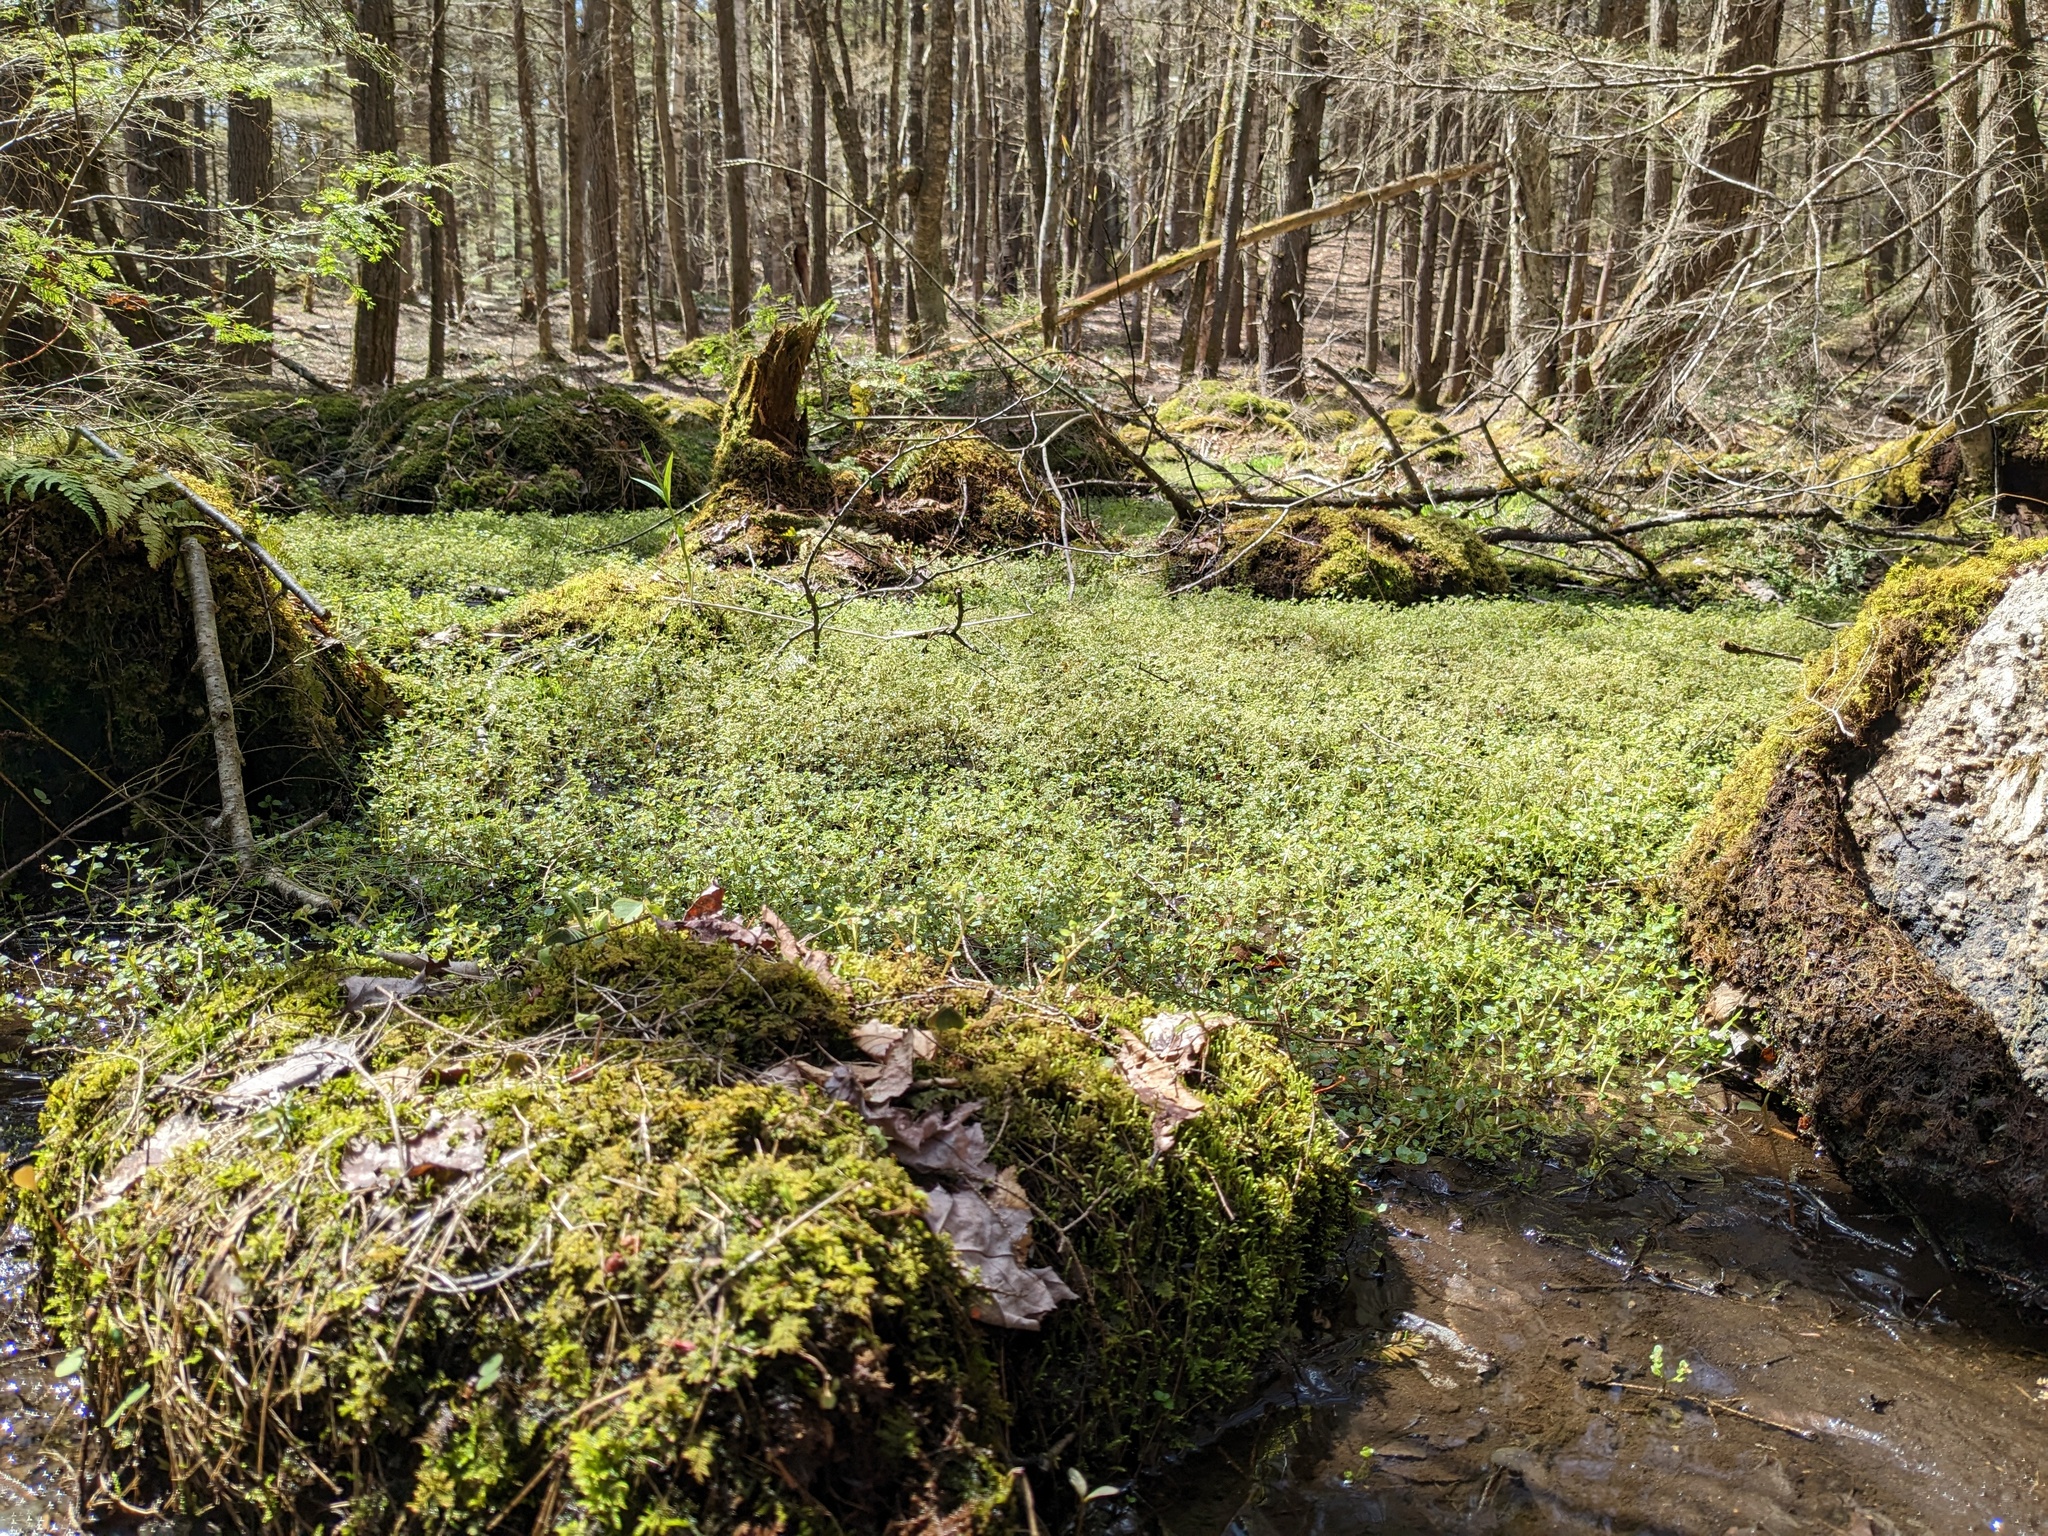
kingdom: Plantae
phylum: Tracheophyta
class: Magnoliopsida
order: Saxifragales
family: Saxifragaceae
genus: Chrysosplenium
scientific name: Chrysosplenium americanum
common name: American golden-saxifrage
